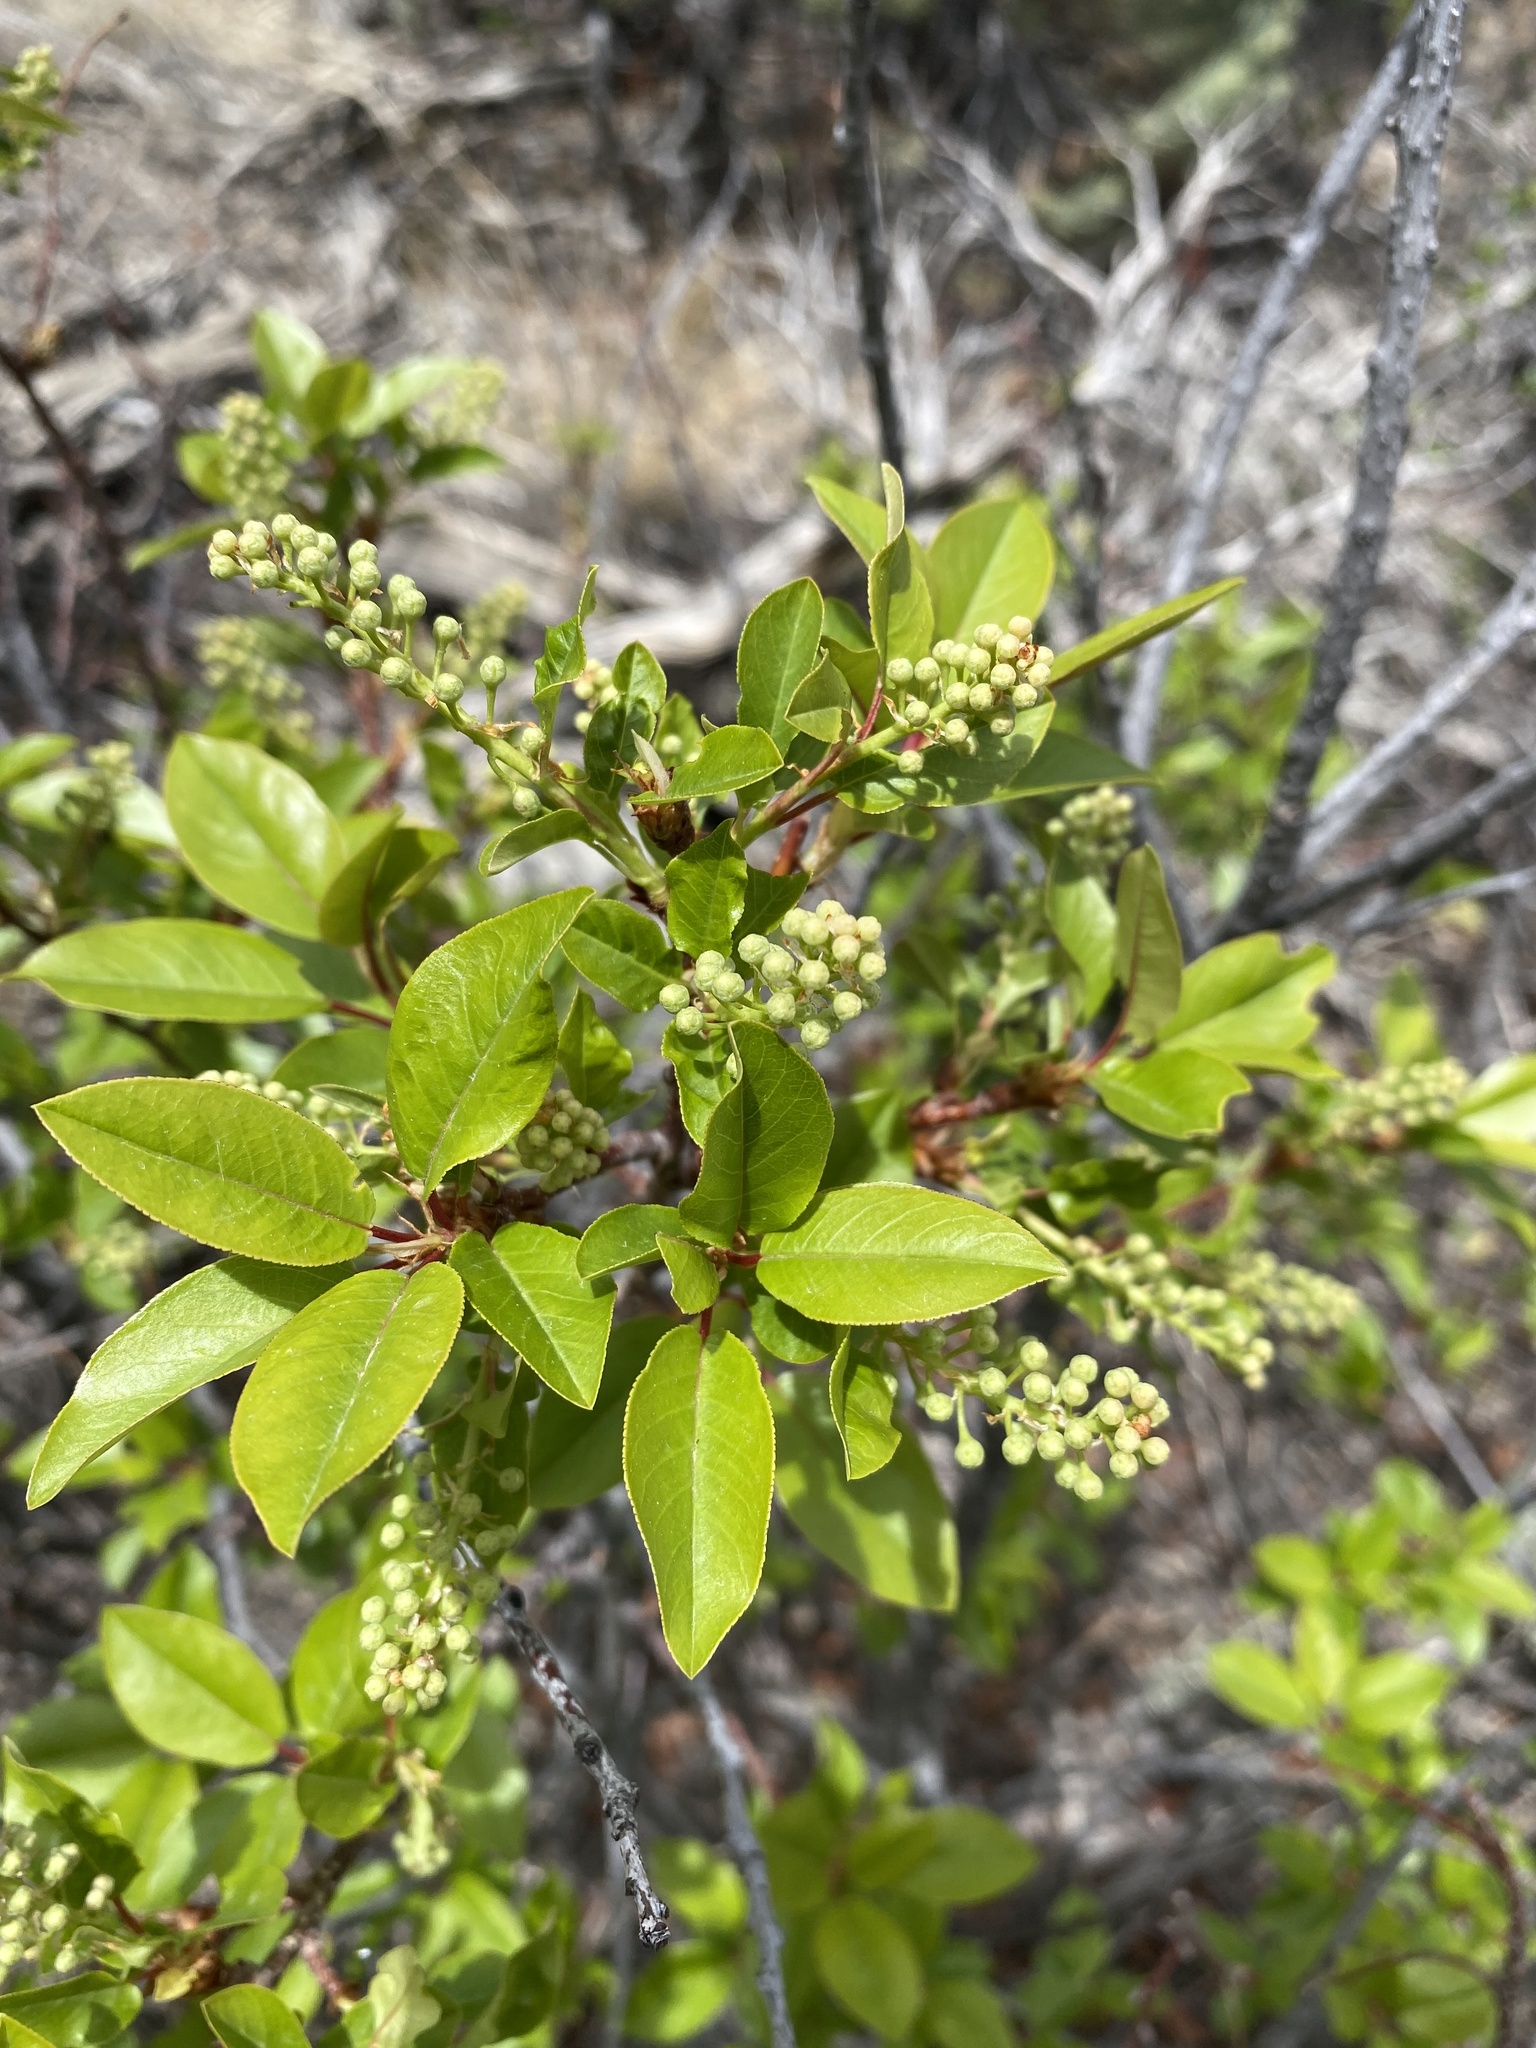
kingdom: Plantae
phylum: Tracheophyta
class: Magnoliopsida
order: Rosales
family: Rosaceae
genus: Prunus
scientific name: Prunus virginiana
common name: Chokecherry
